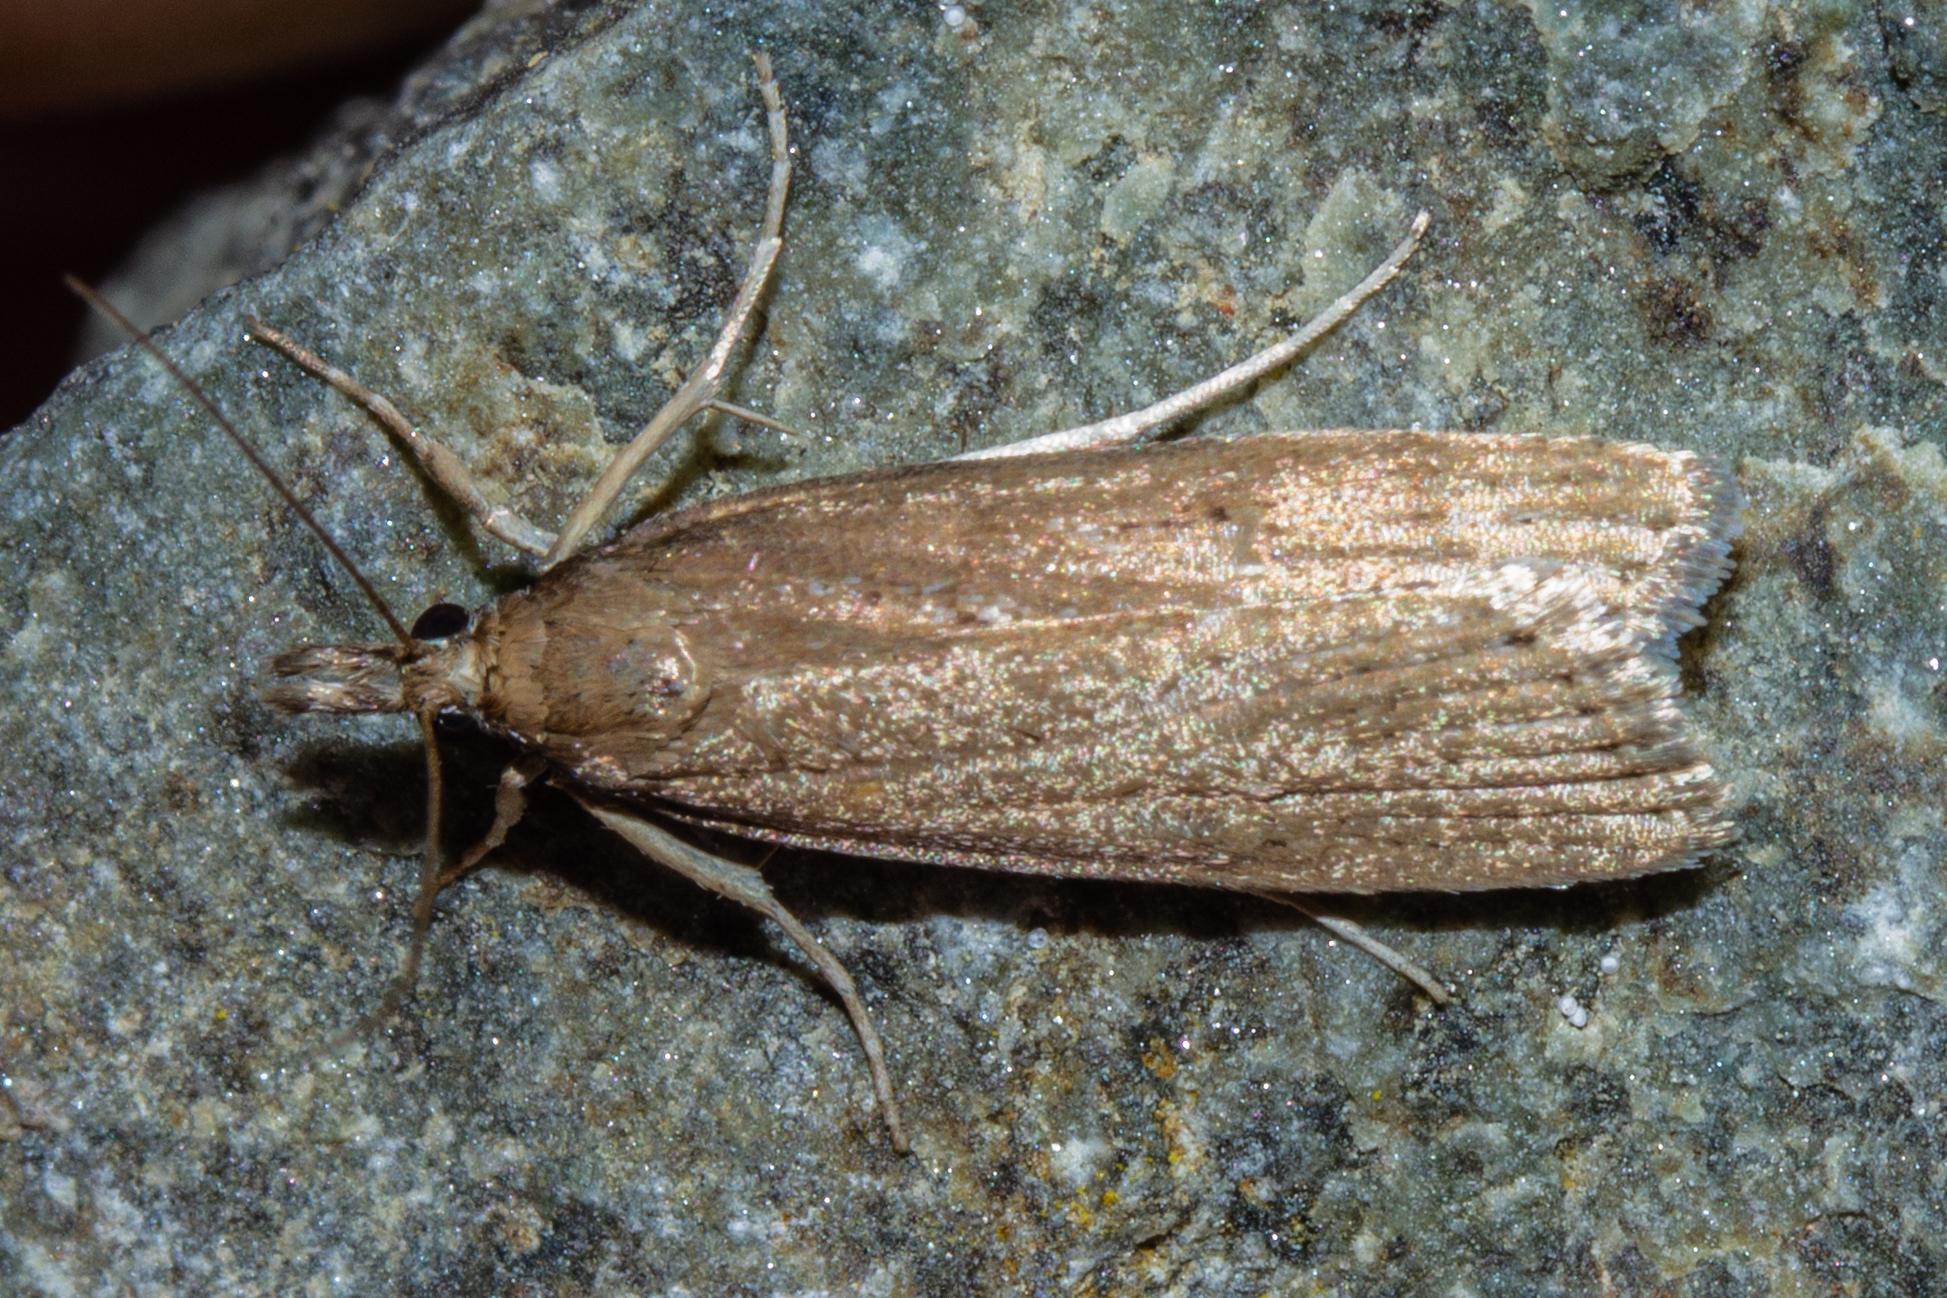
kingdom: Animalia
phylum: Arthropoda
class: Insecta
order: Lepidoptera
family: Crambidae
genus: Eudonia
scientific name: Eudonia octophora
